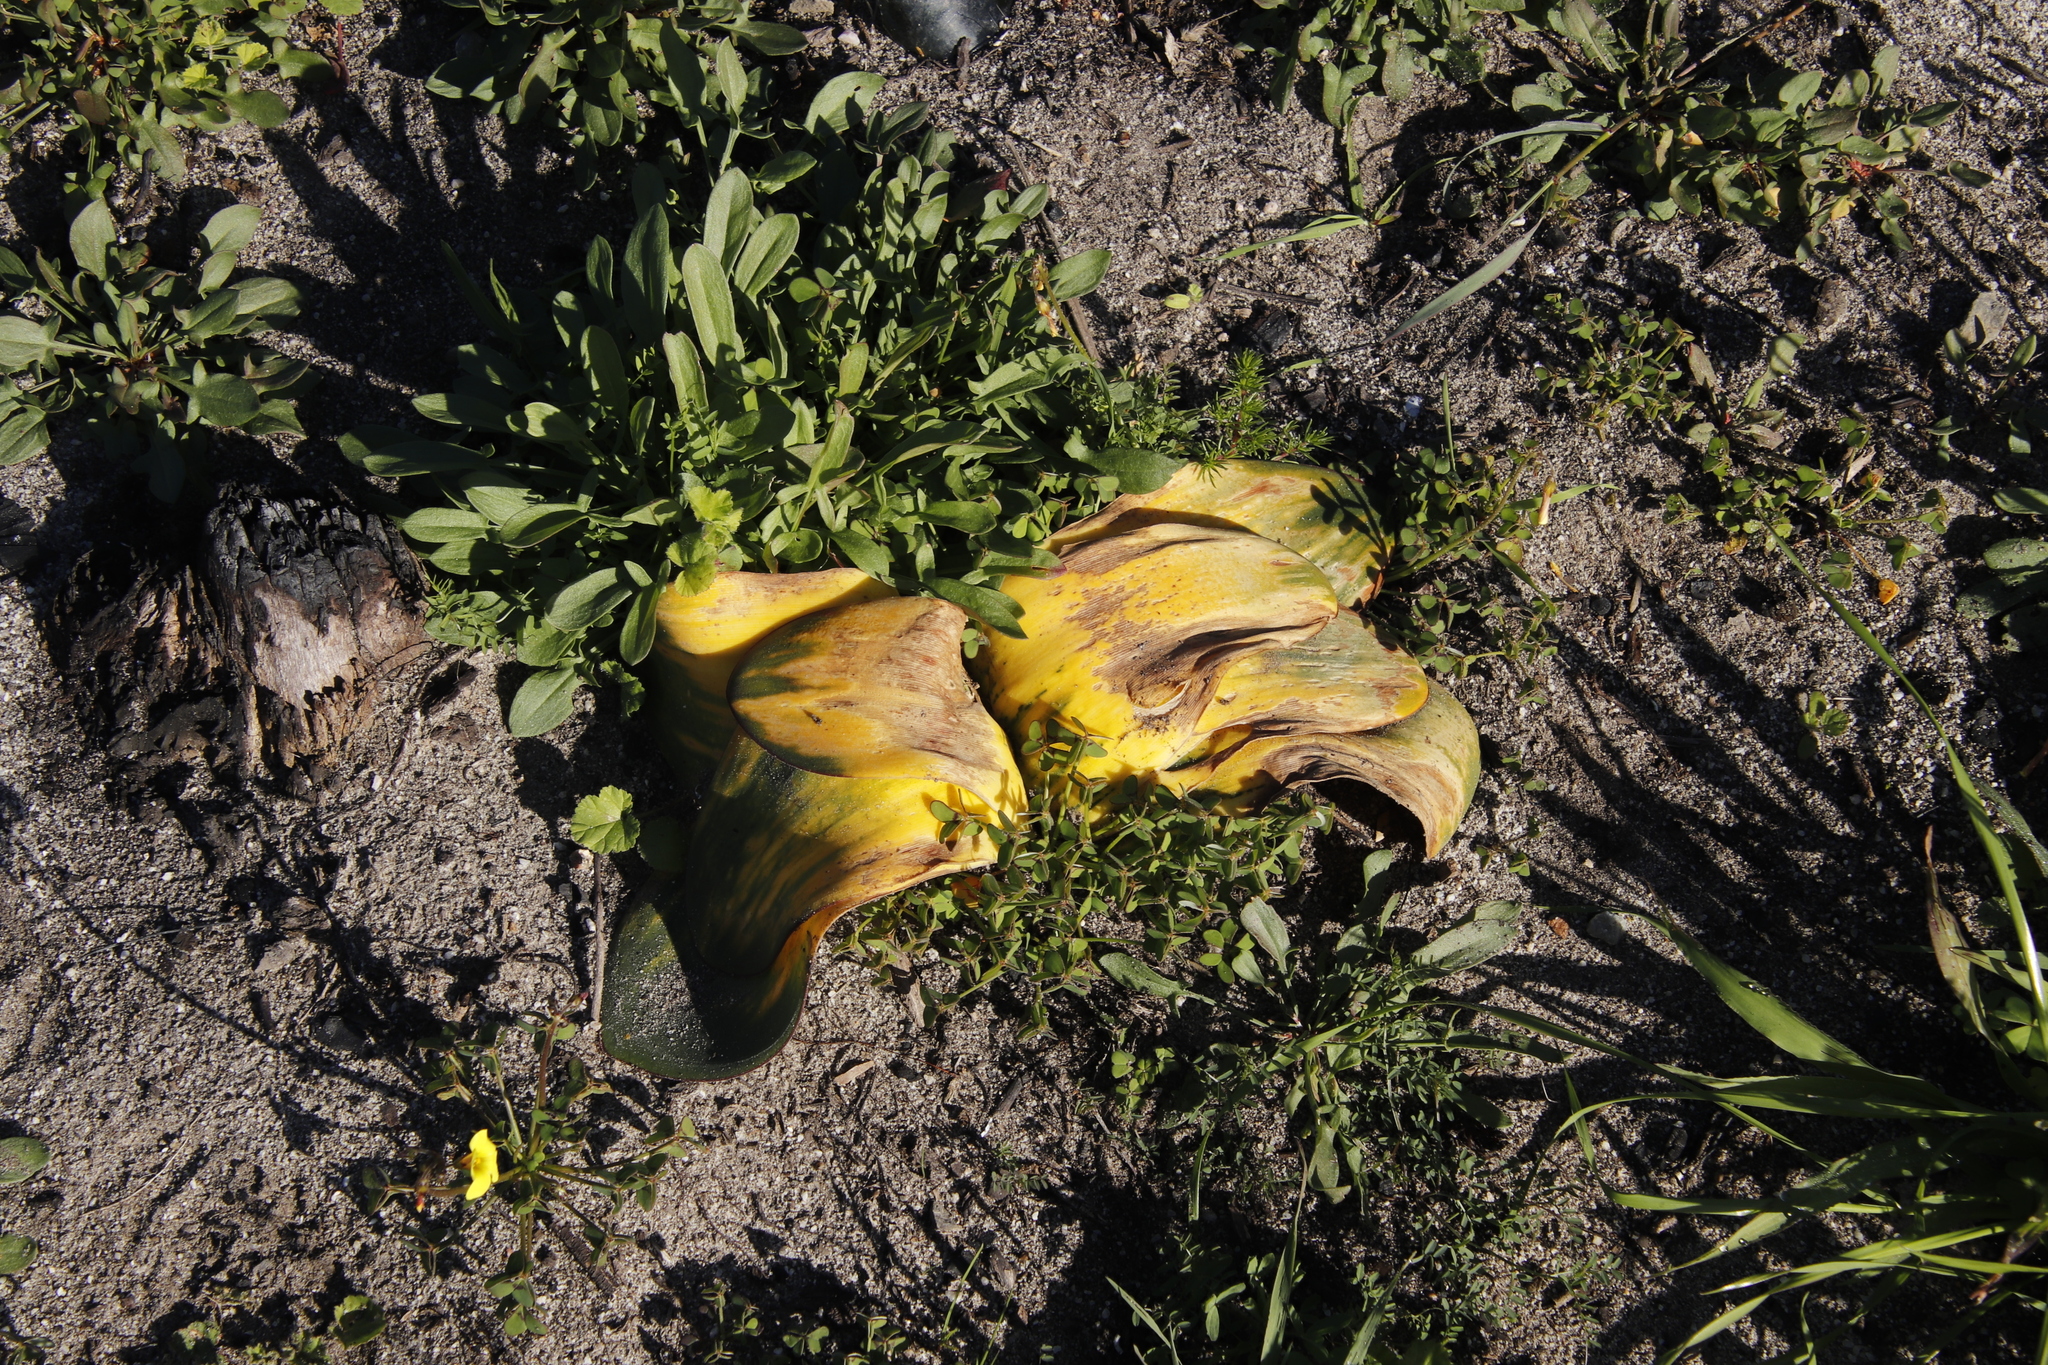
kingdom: Plantae
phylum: Tracheophyta
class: Liliopsida
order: Asparagales
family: Amaryllidaceae
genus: Brunsvigia
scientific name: Brunsvigia orientalis
